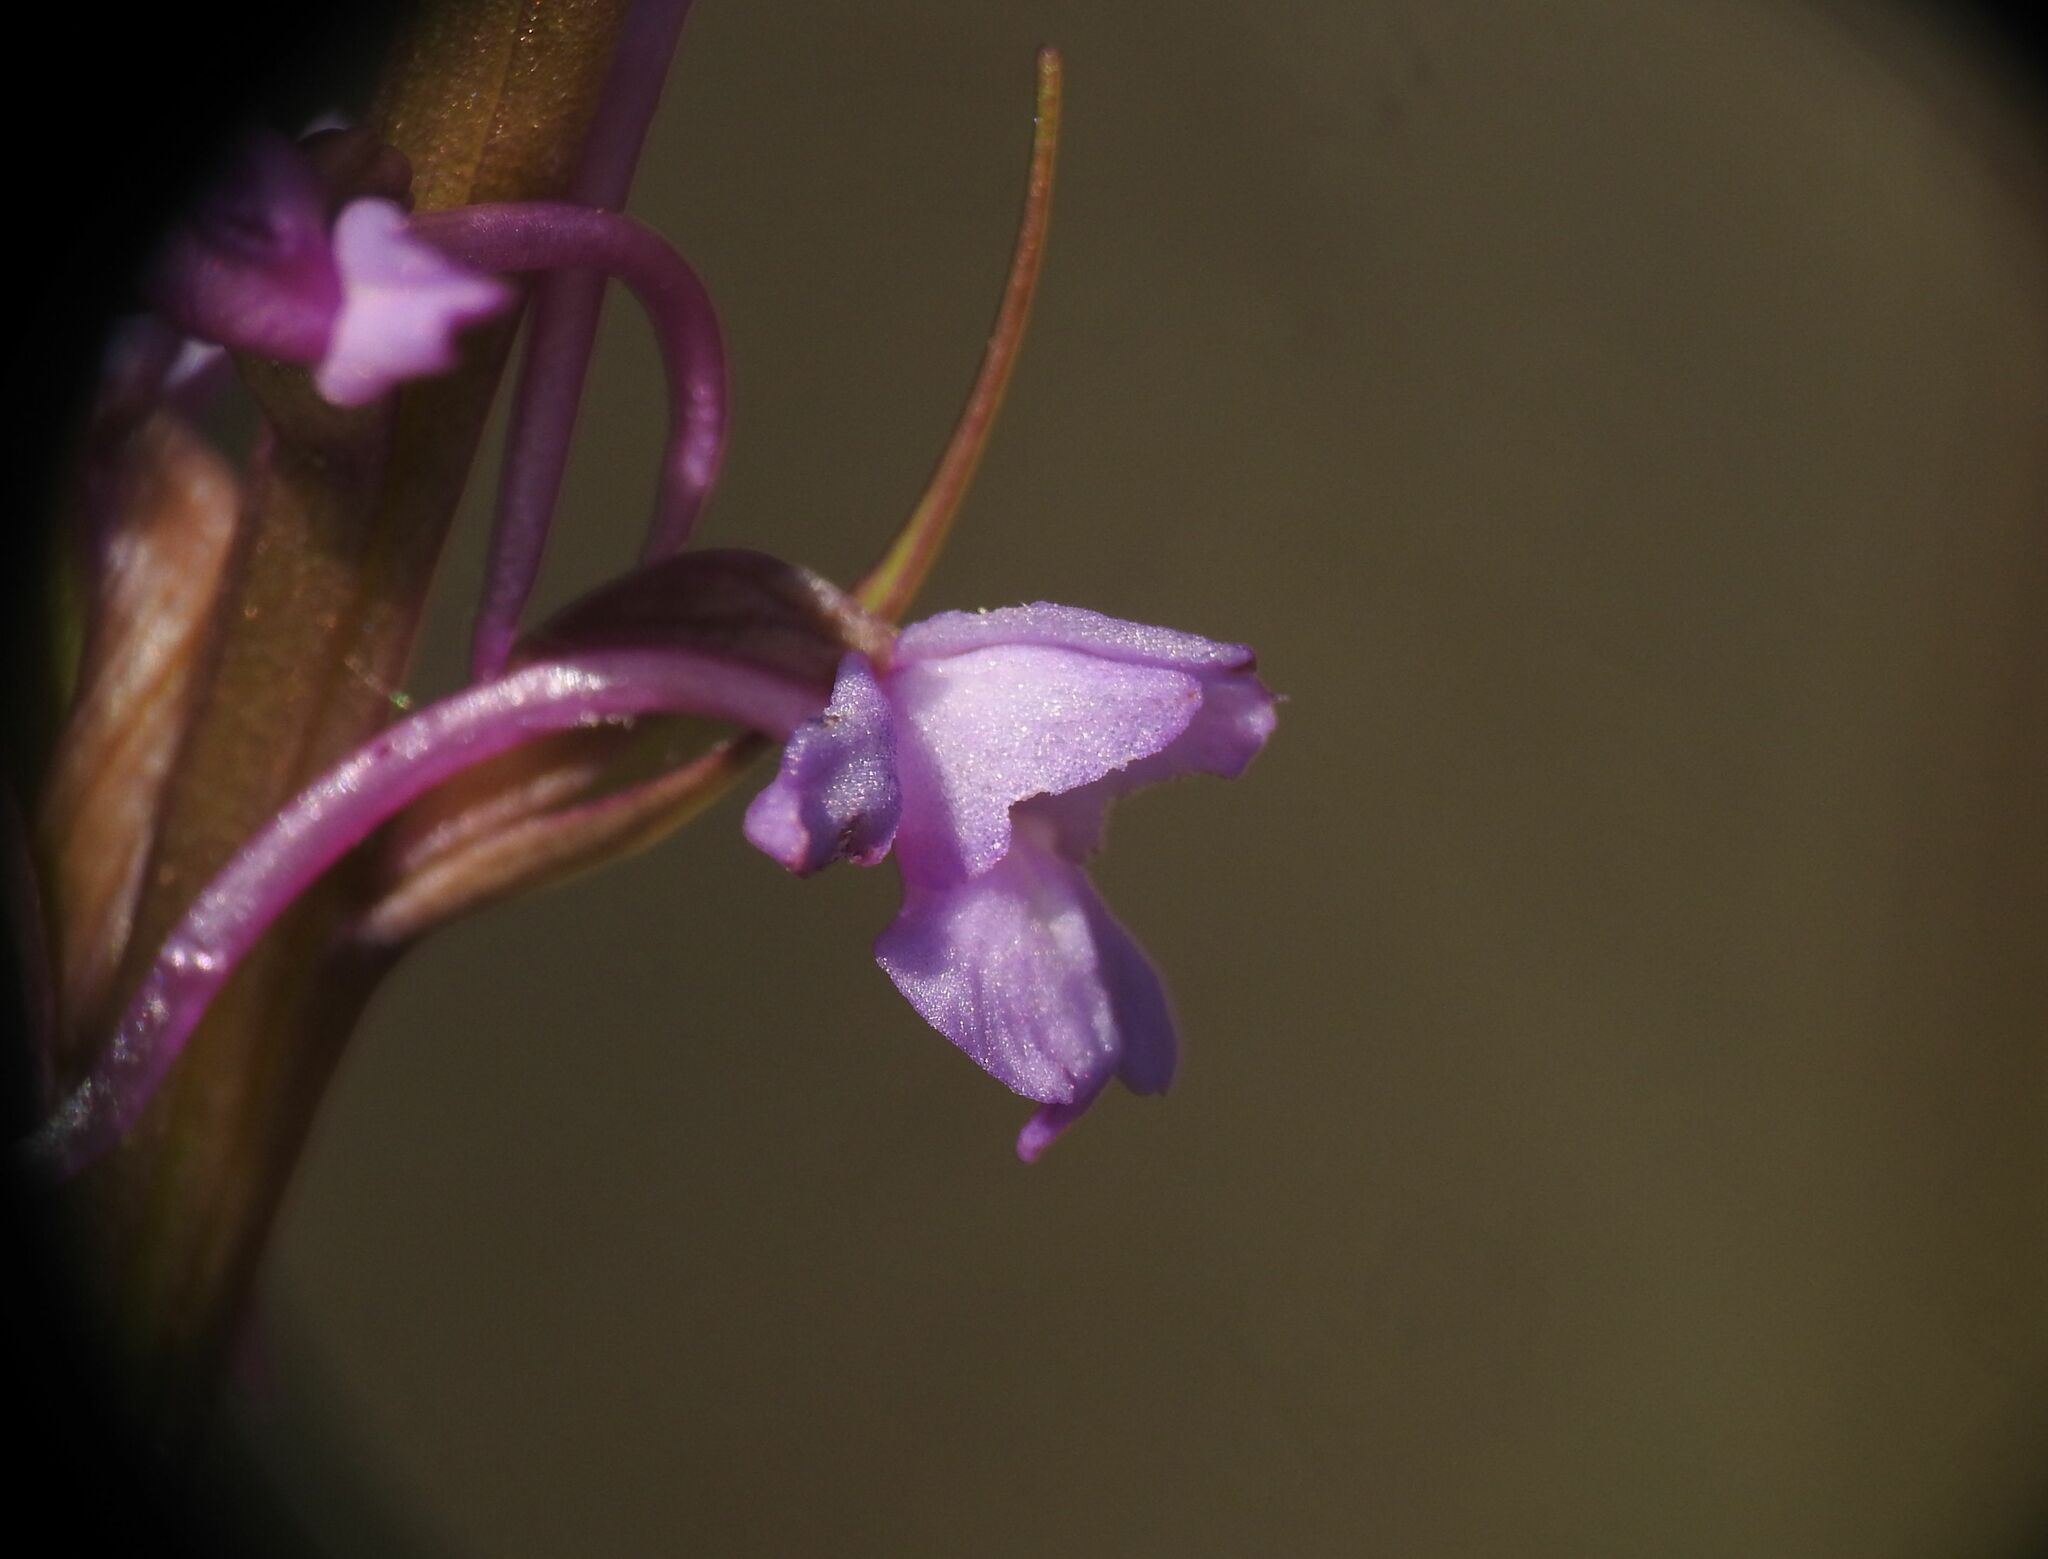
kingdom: Plantae
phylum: Tracheophyta
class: Liliopsida
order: Asparagales
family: Orchidaceae
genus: Gymnadenia
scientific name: Gymnadenia conopsea
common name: Fragrant orchid
